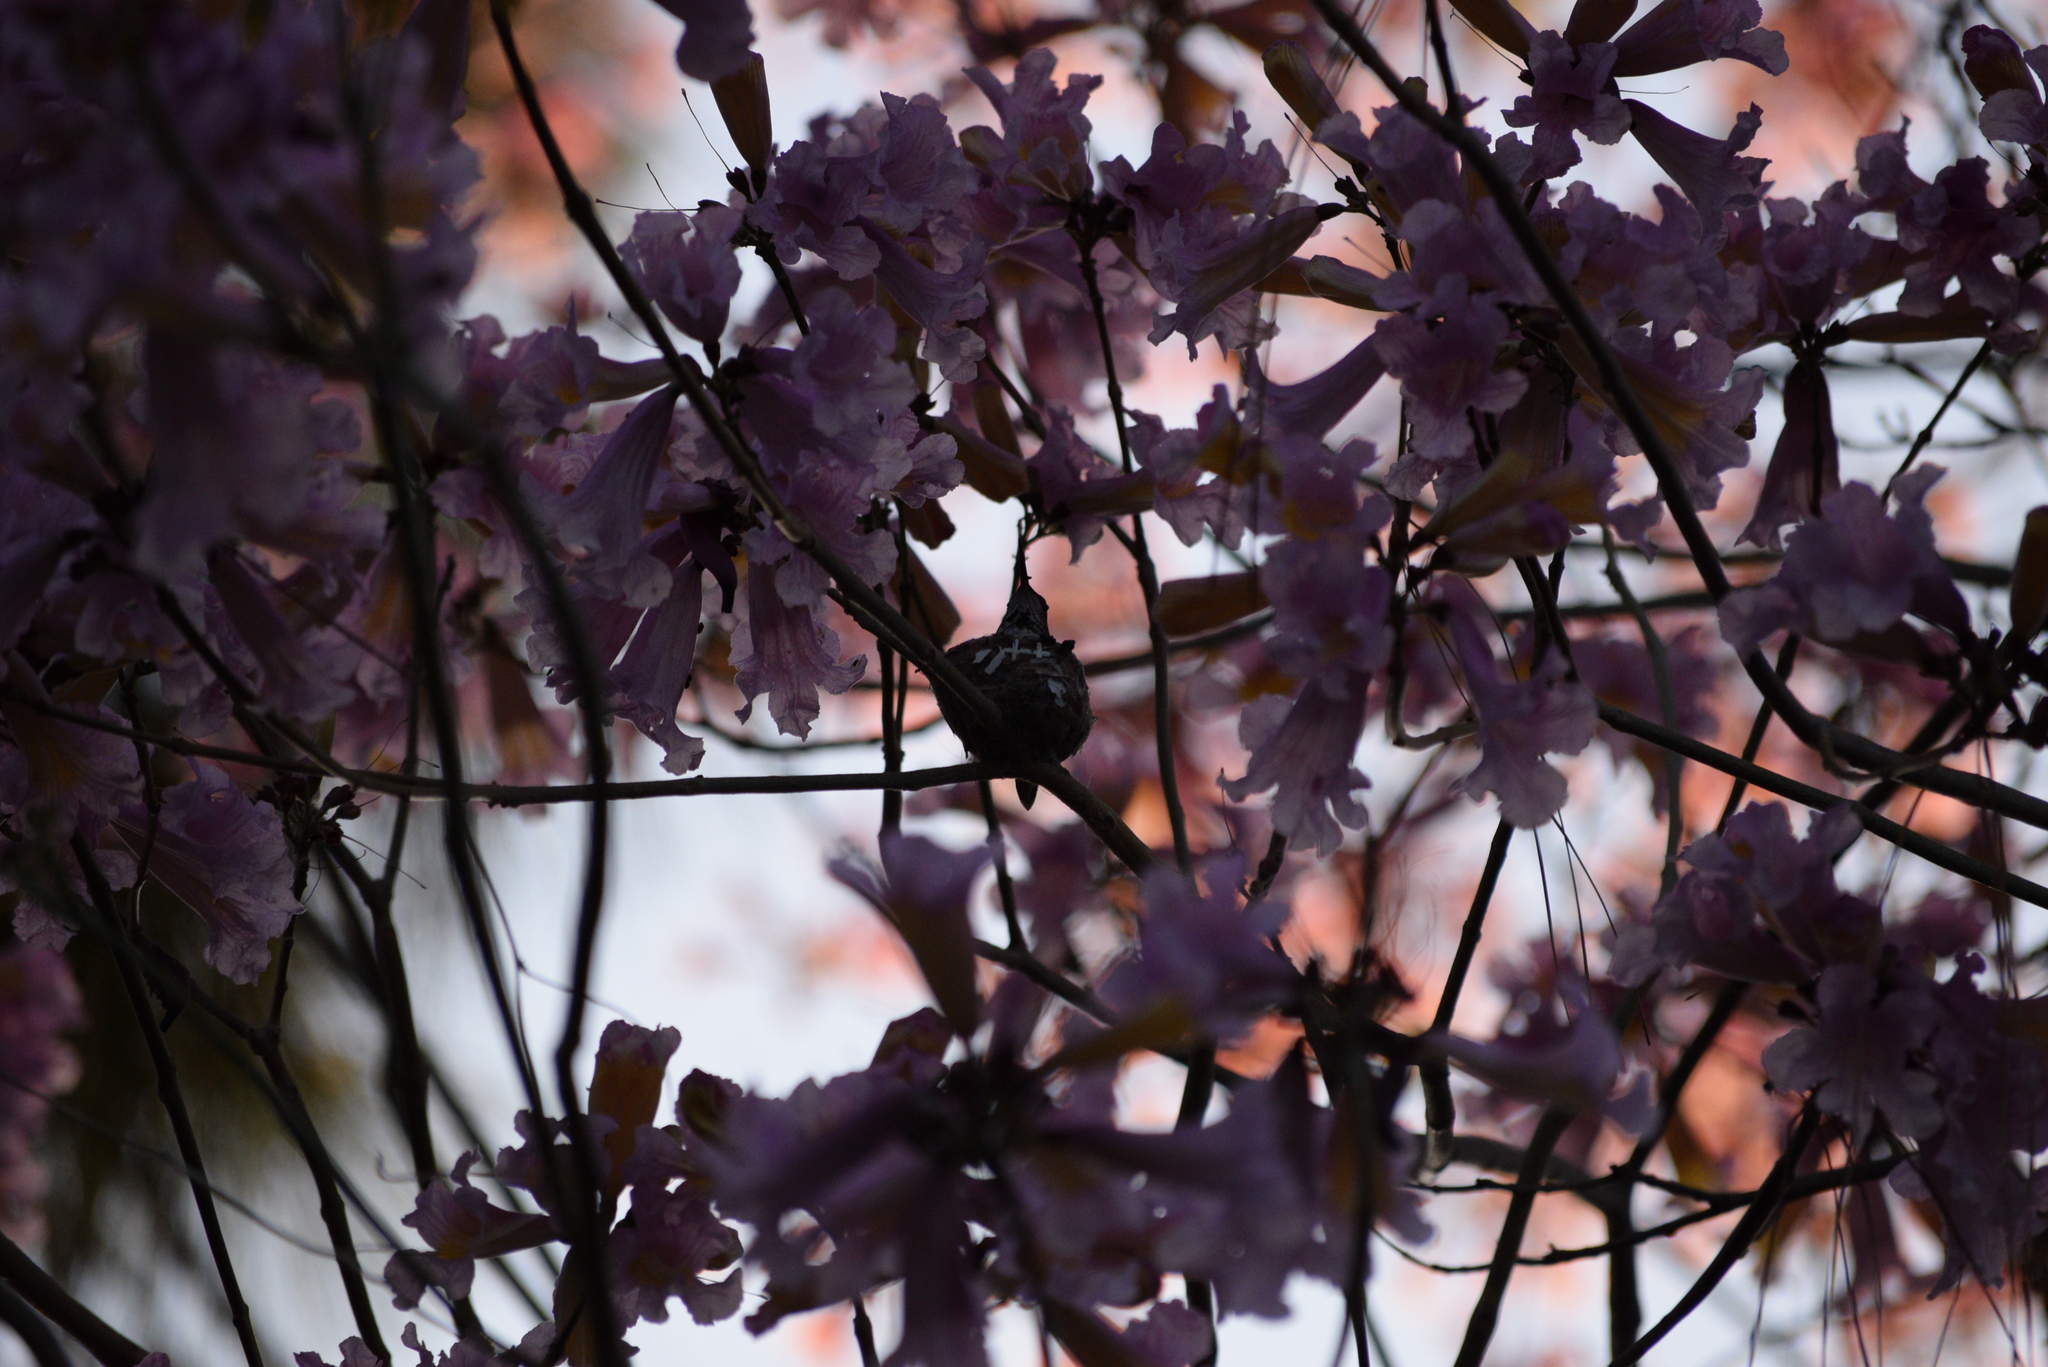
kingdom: Animalia
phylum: Chordata
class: Aves
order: Apodiformes
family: Trochilidae
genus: Selasphorus
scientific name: Selasphorus sasin
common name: Allen's hummingbird
